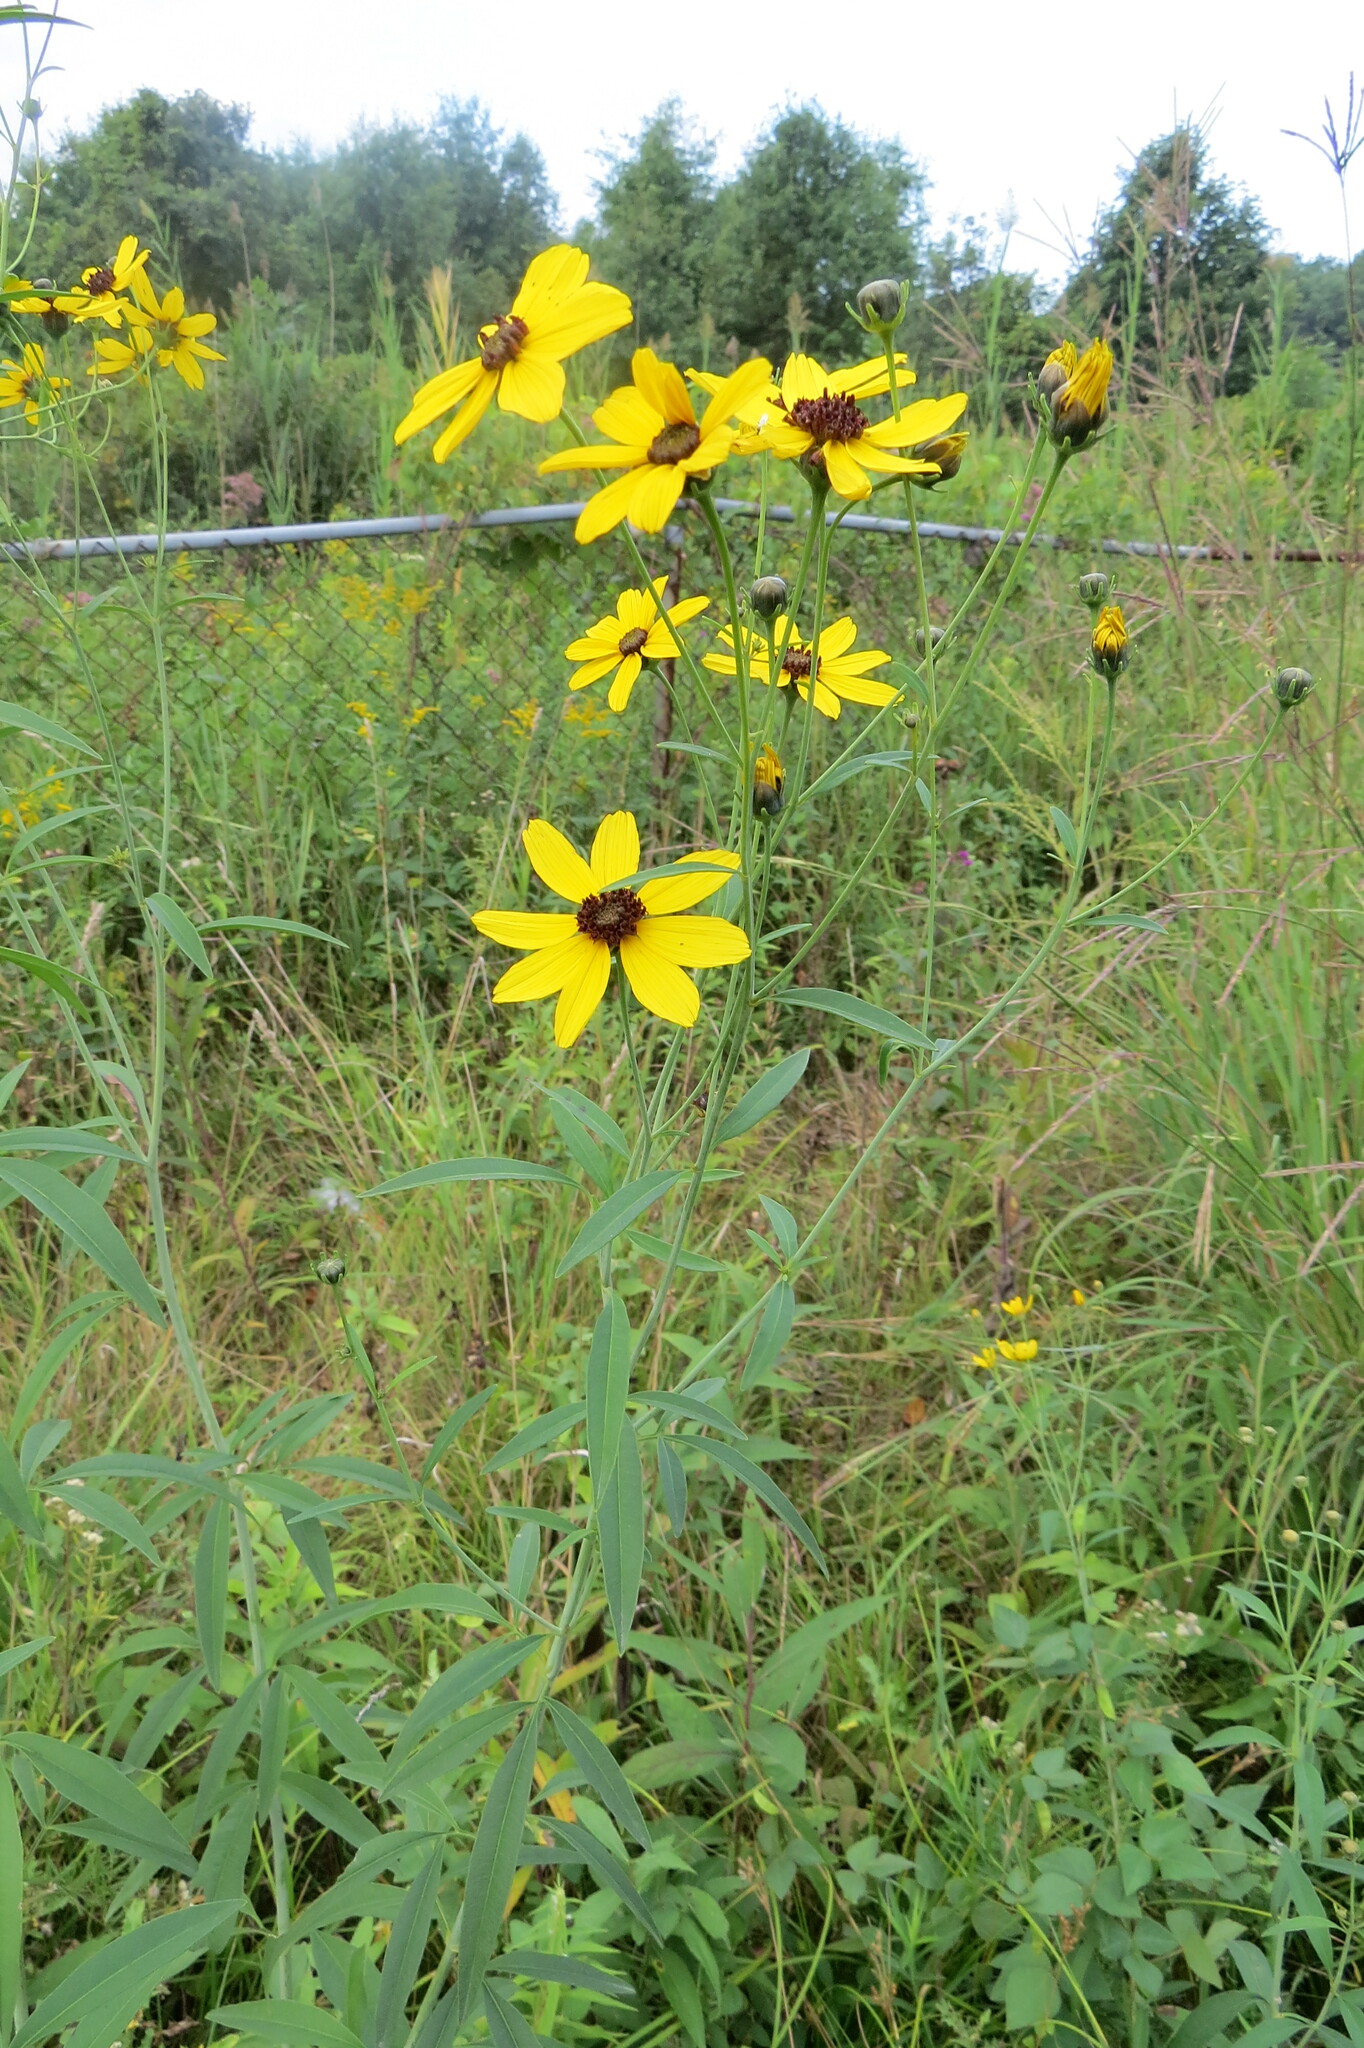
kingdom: Plantae
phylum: Tracheophyta
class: Magnoliopsida
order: Asterales
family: Asteraceae
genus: Coreopsis
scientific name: Coreopsis tripteris
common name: Tall coreopsis
